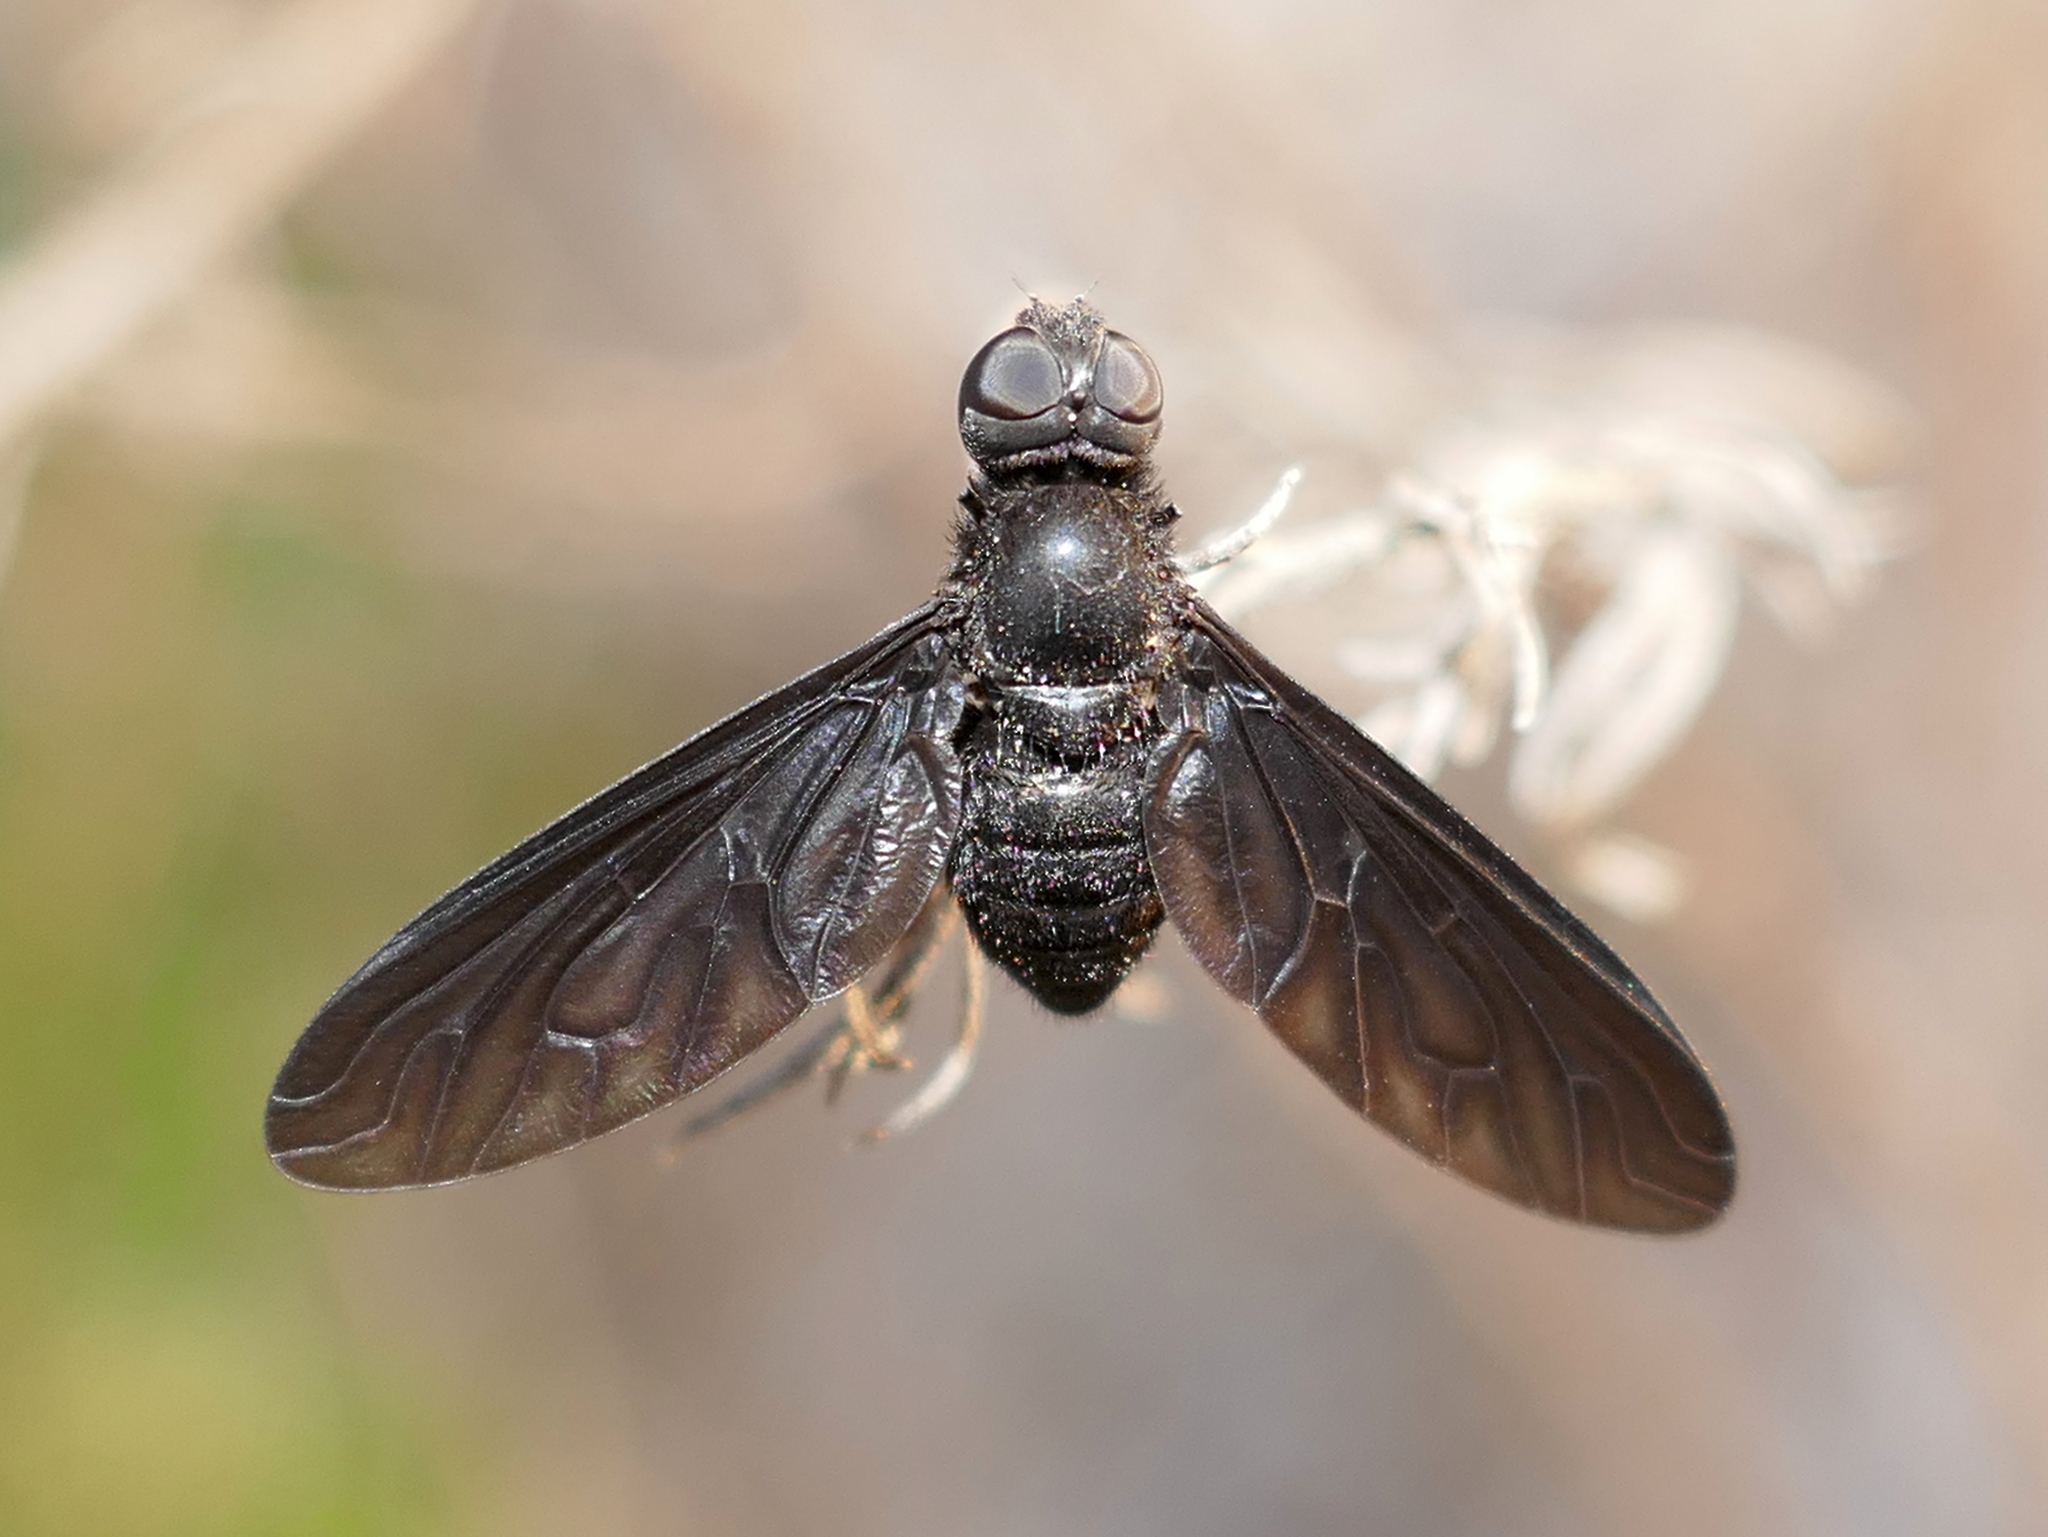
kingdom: Animalia
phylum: Arthropoda
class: Insecta
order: Diptera
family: Bombyliidae
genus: Brachyanax
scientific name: Brachyanax aterrimus
